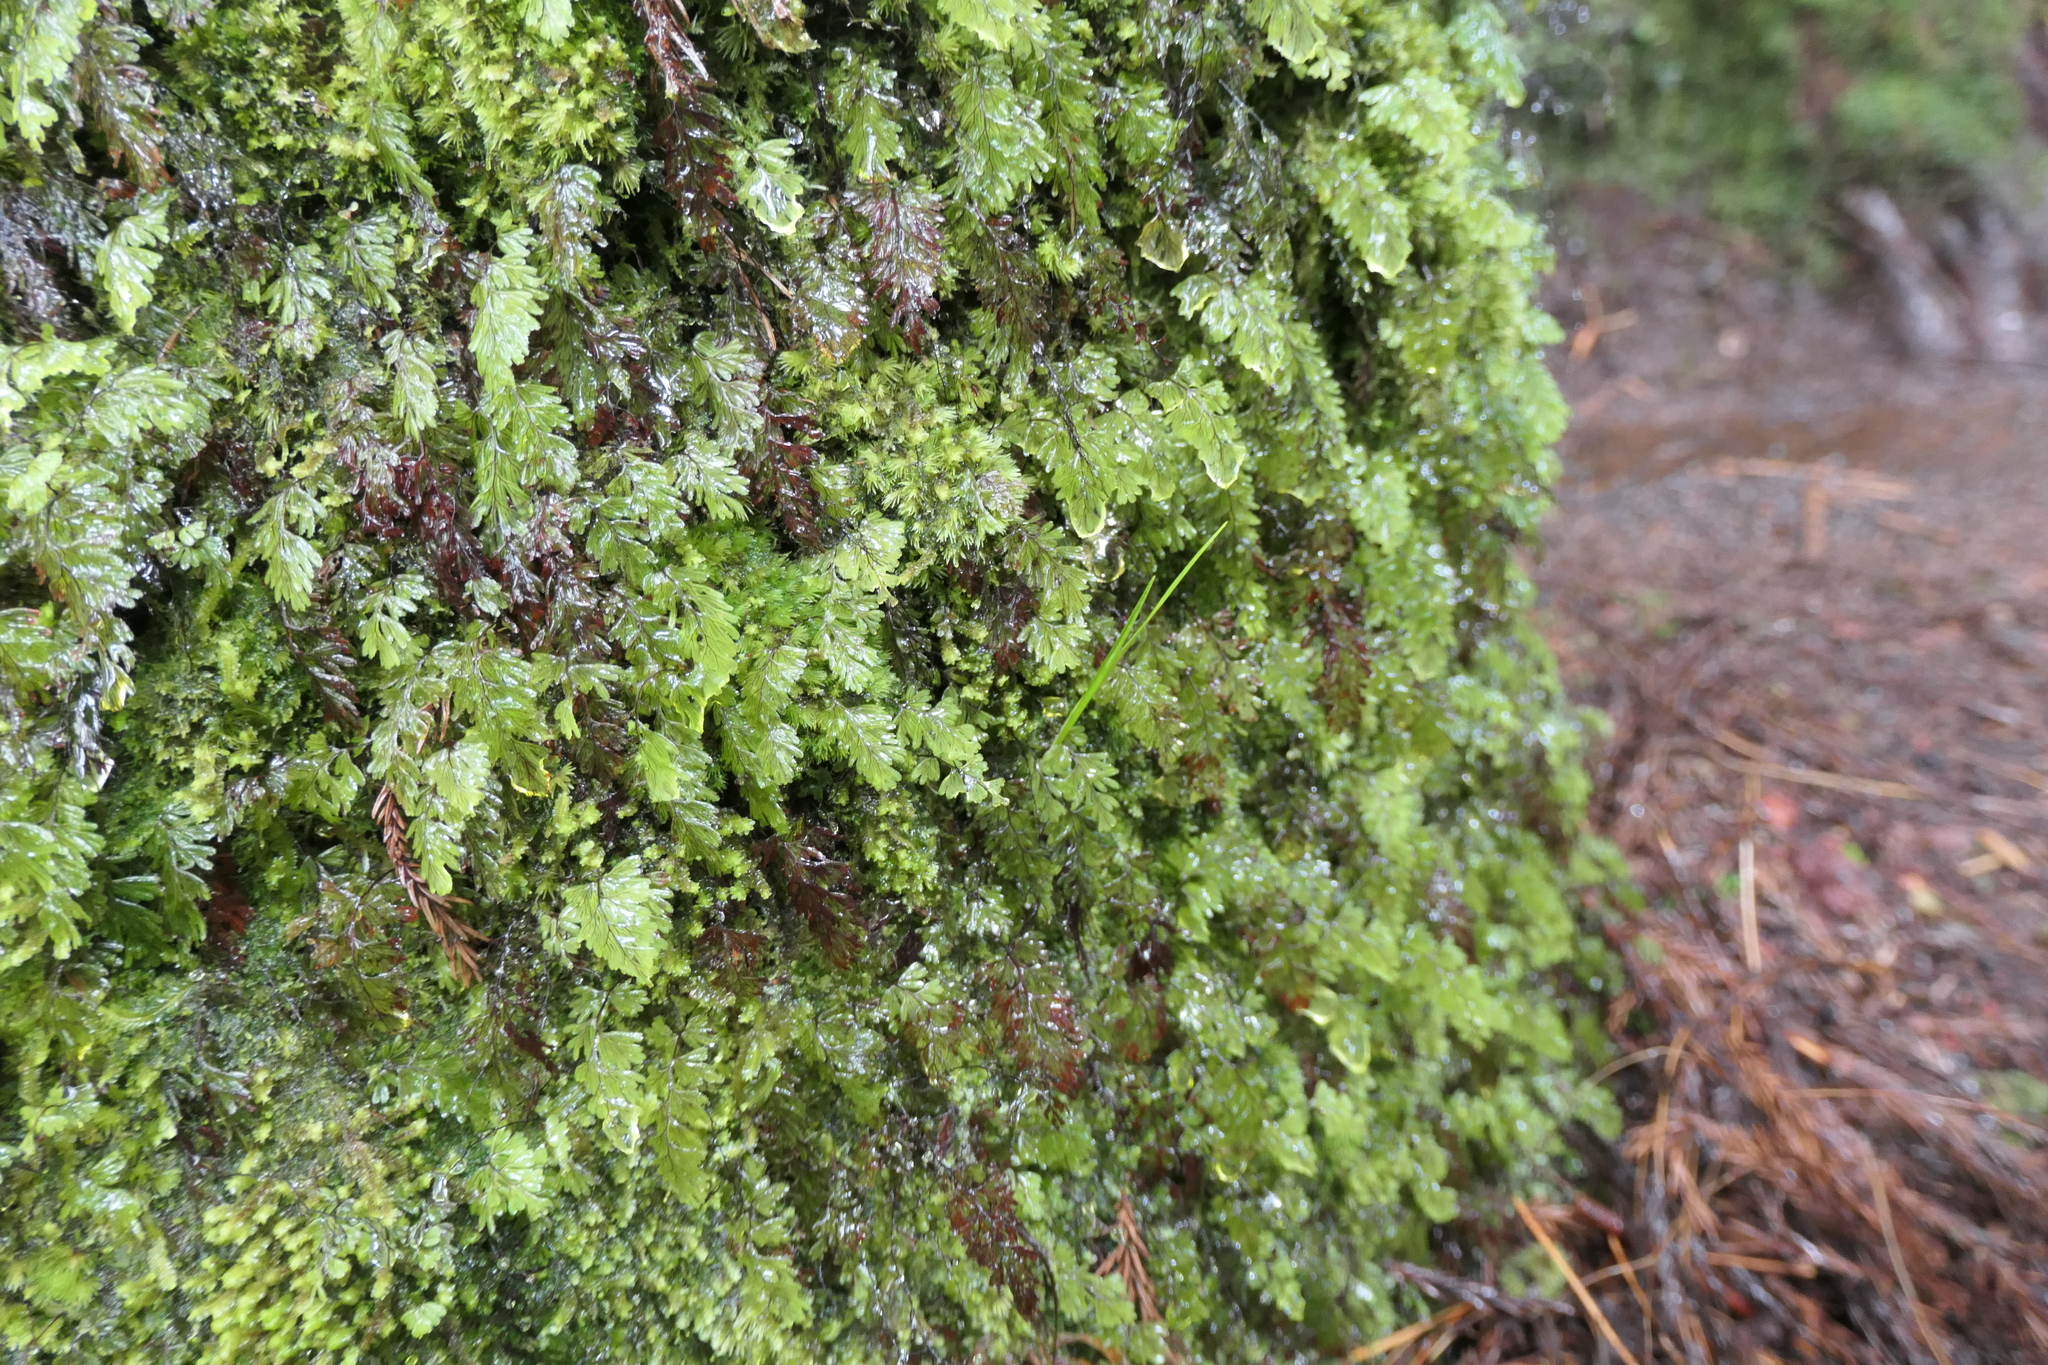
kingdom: Plantae
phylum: Tracheophyta
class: Polypodiopsida
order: Hymenophyllales
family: Hymenophyllaceae
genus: Hymenophyllum
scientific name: Hymenophyllum tunbrigense
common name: Tunbridge filmy fern
